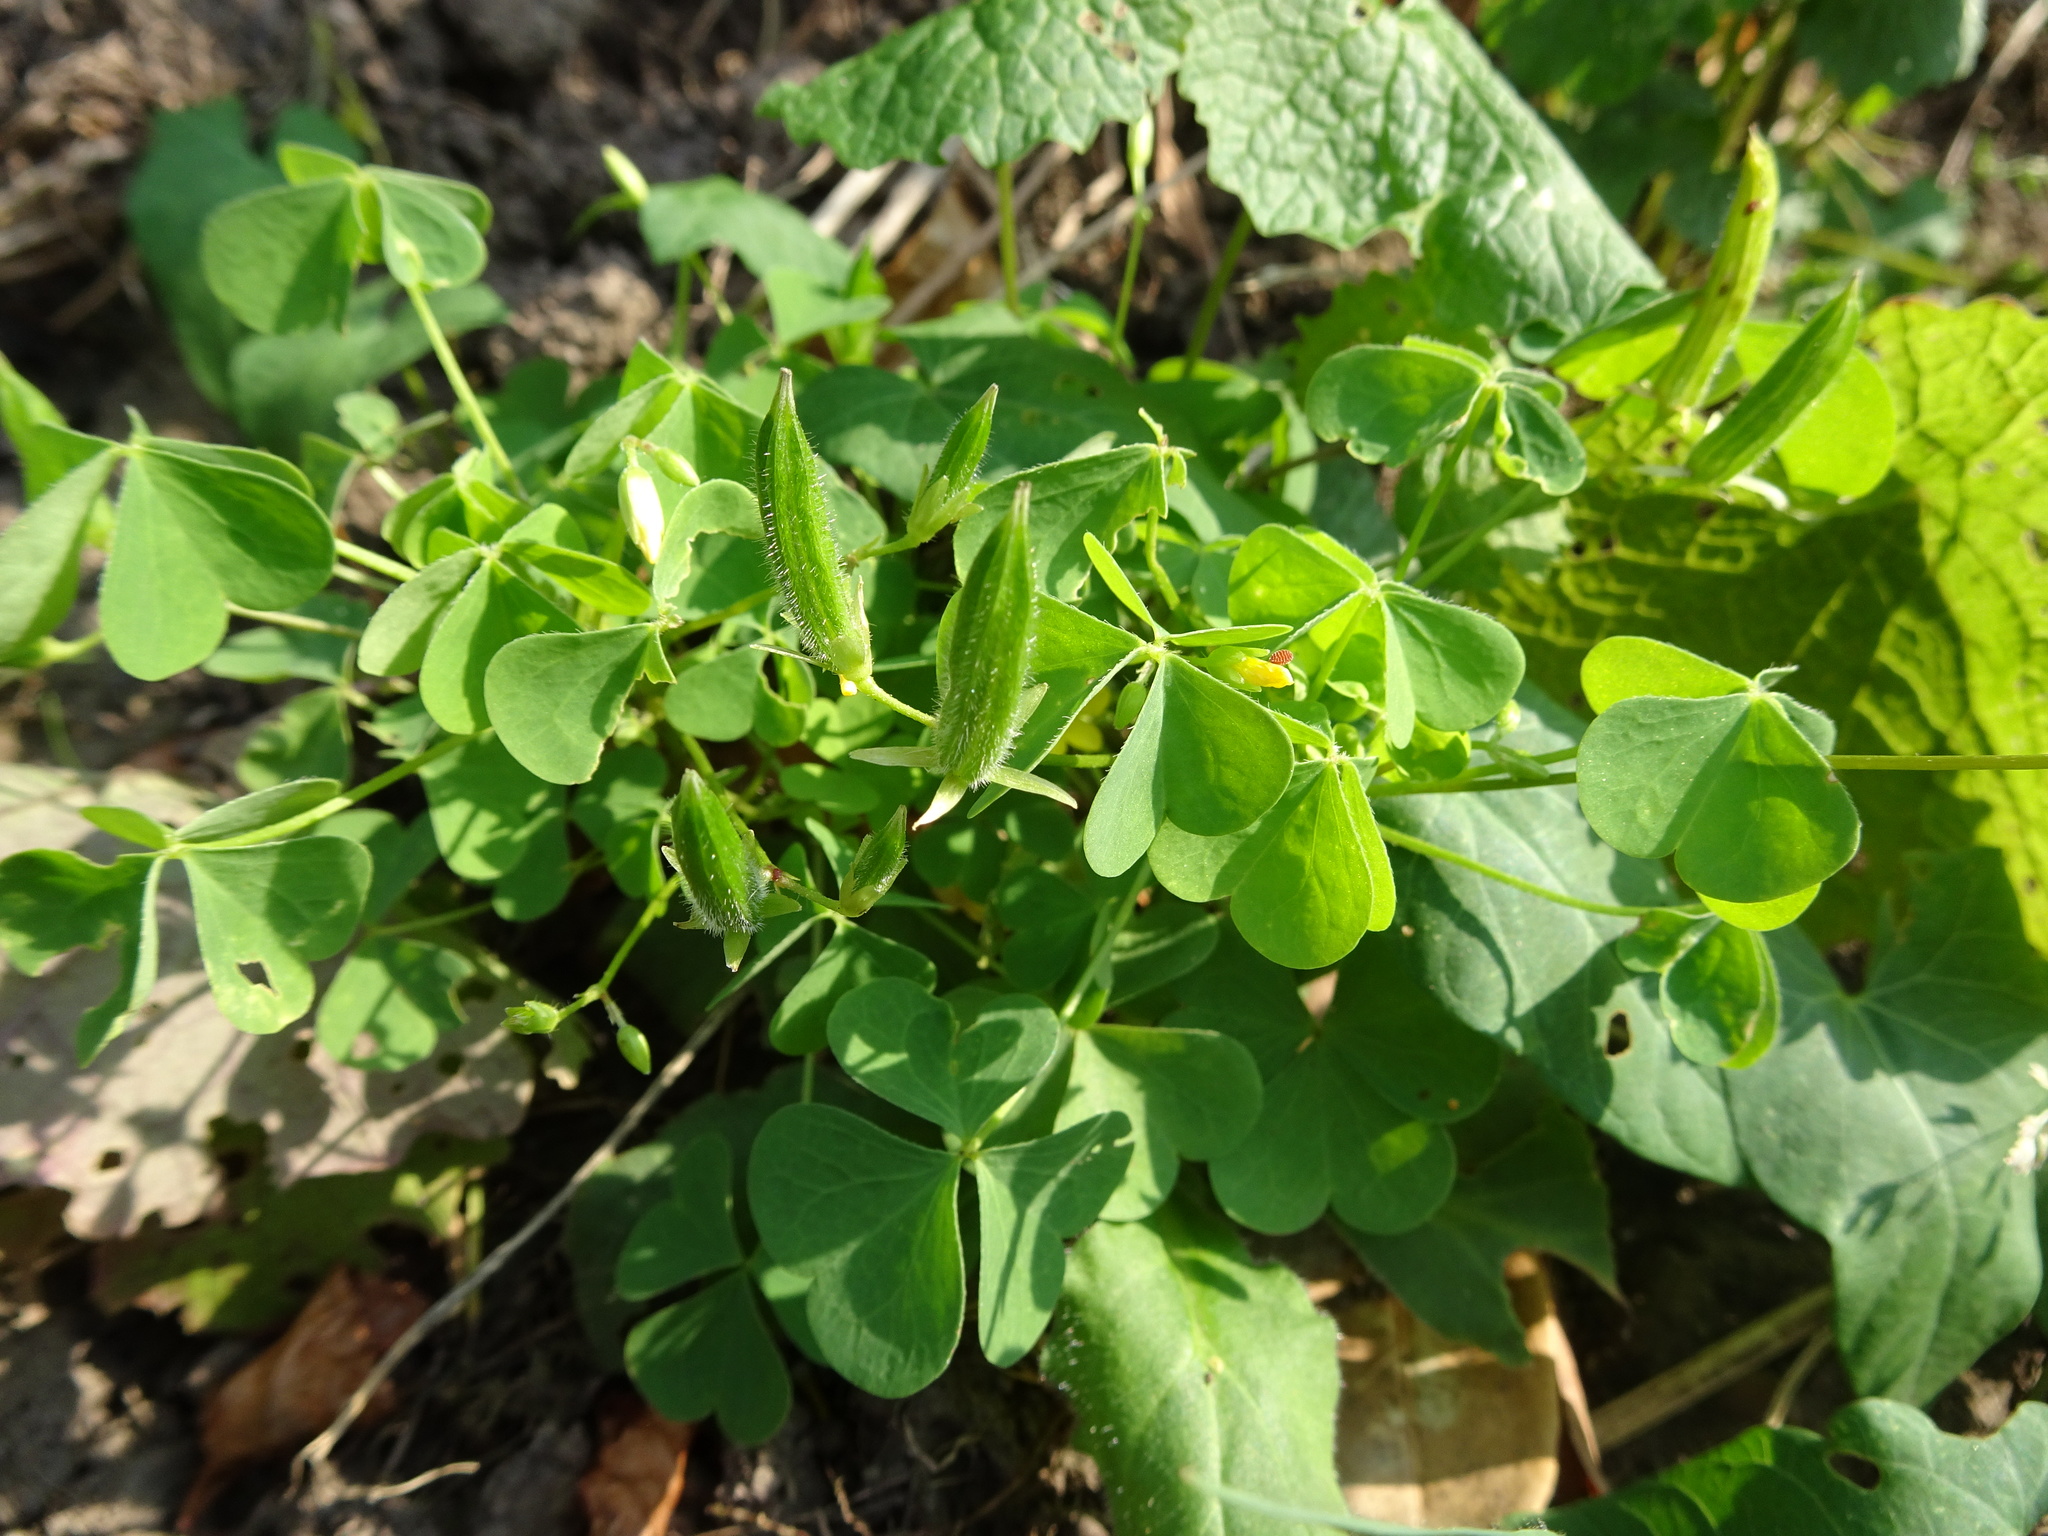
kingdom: Plantae
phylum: Tracheophyta
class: Magnoliopsida
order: Oxalidales
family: Oxalidaceae
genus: Oxalis
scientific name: Oxalis stricta
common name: Upright yellow-sorrel
